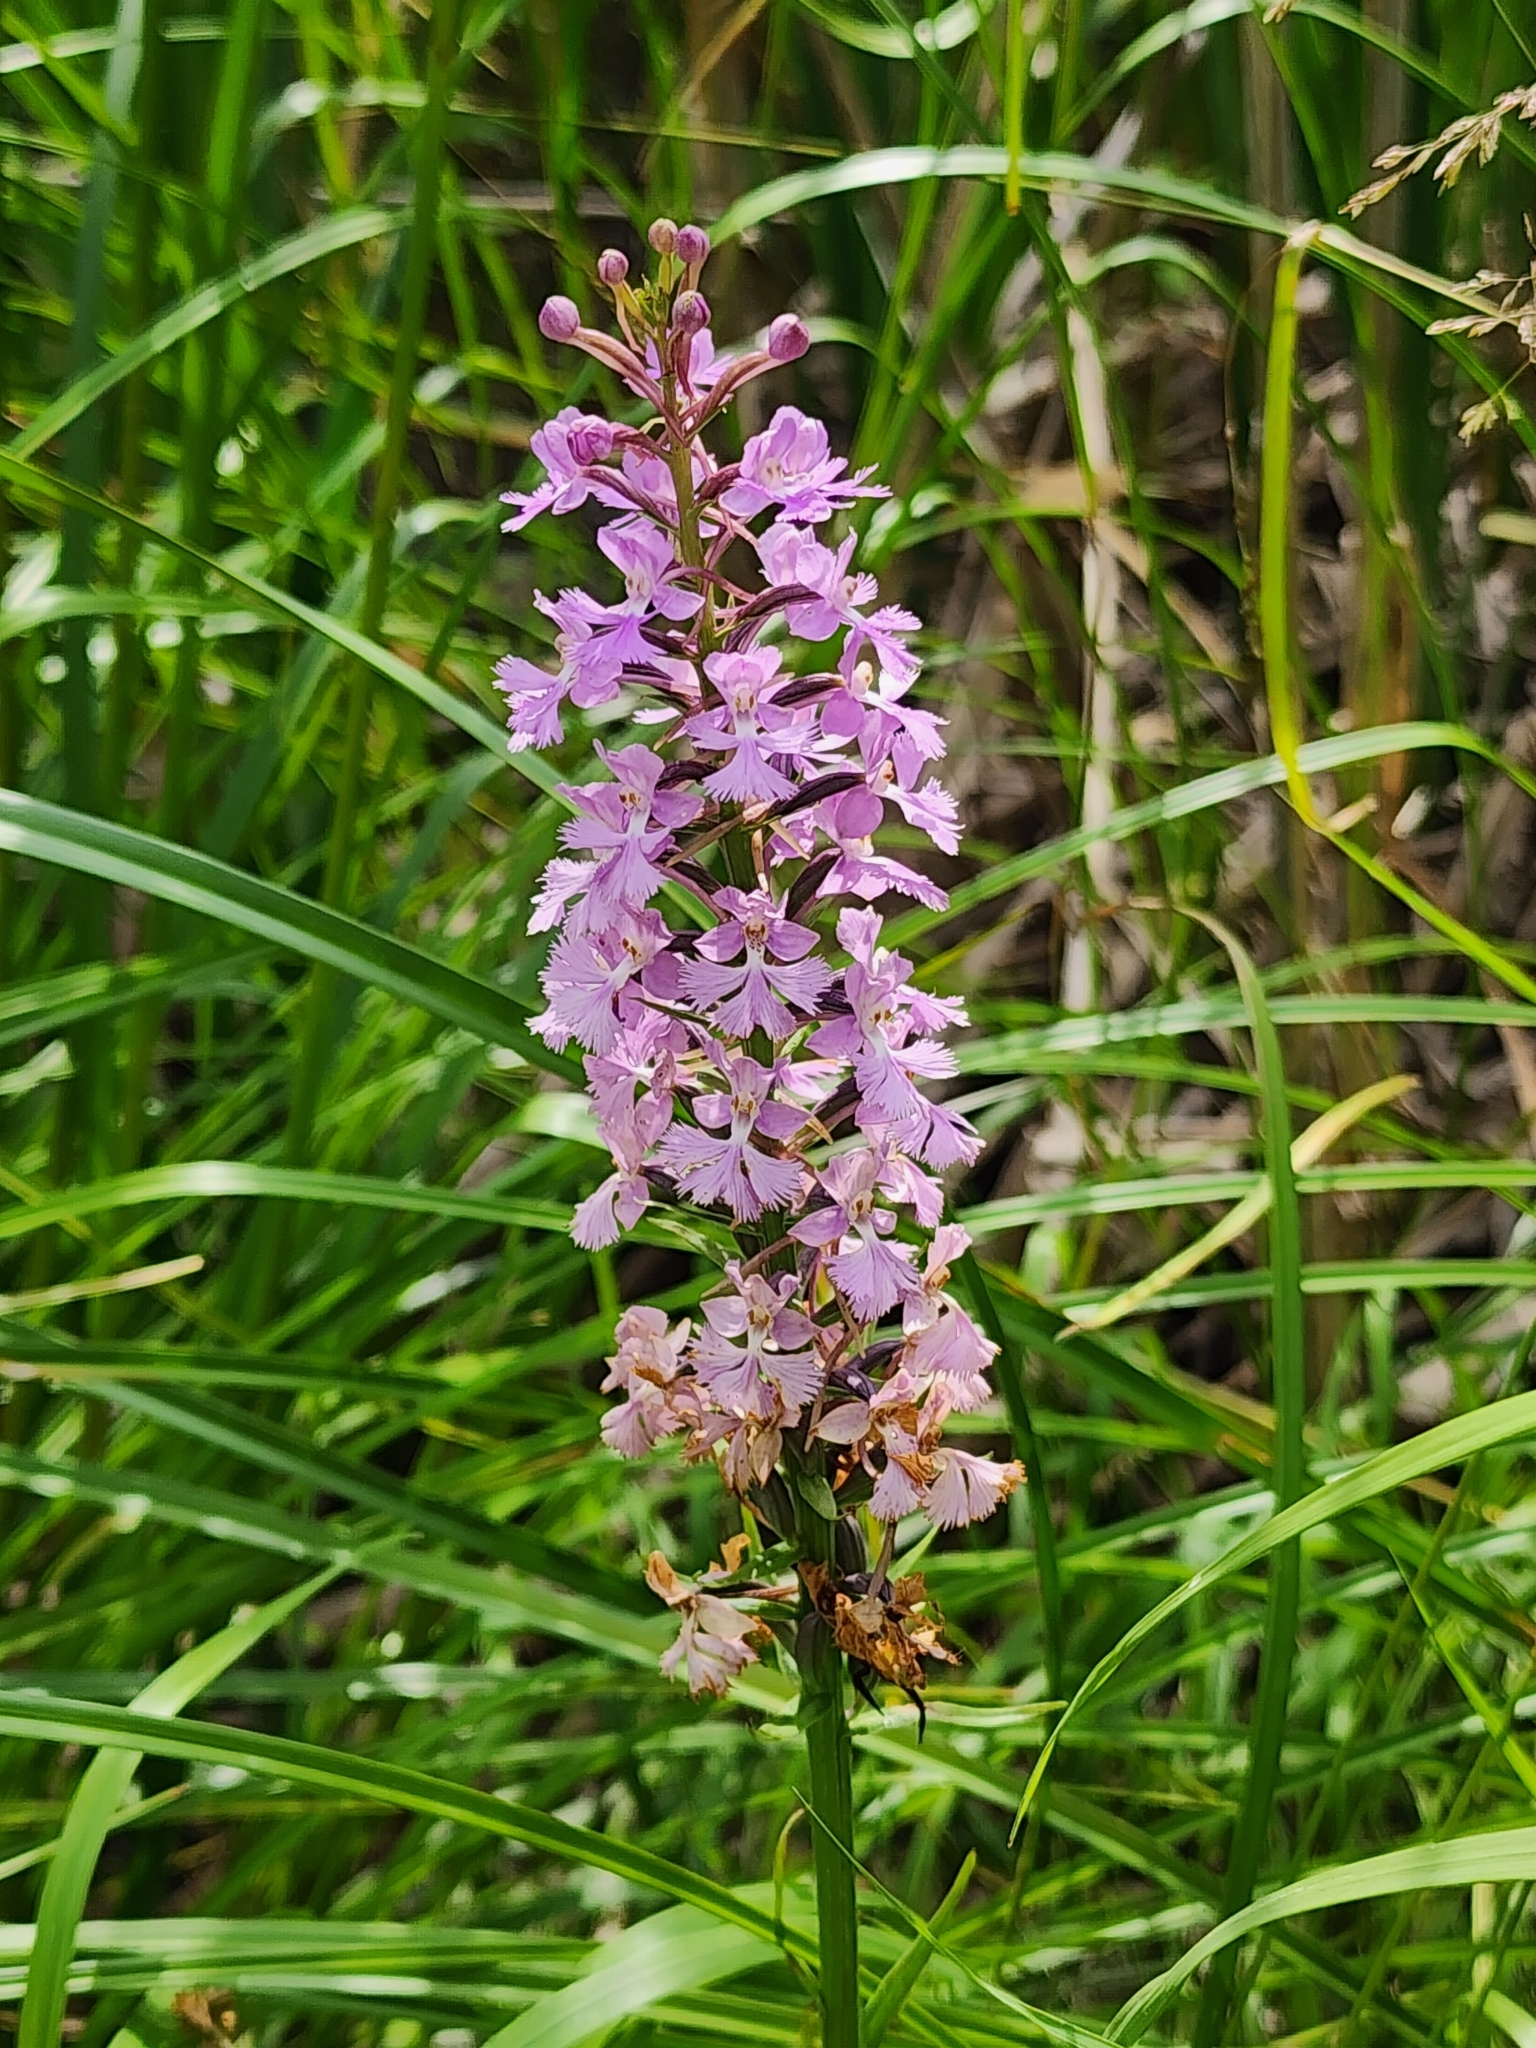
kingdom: Plantae
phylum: Tracheophyta
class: Liliopsida
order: Asparagales
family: Orchidaceae
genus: Platanthera
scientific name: Platanthera psycodes
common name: Lesser purple fringed orchid
